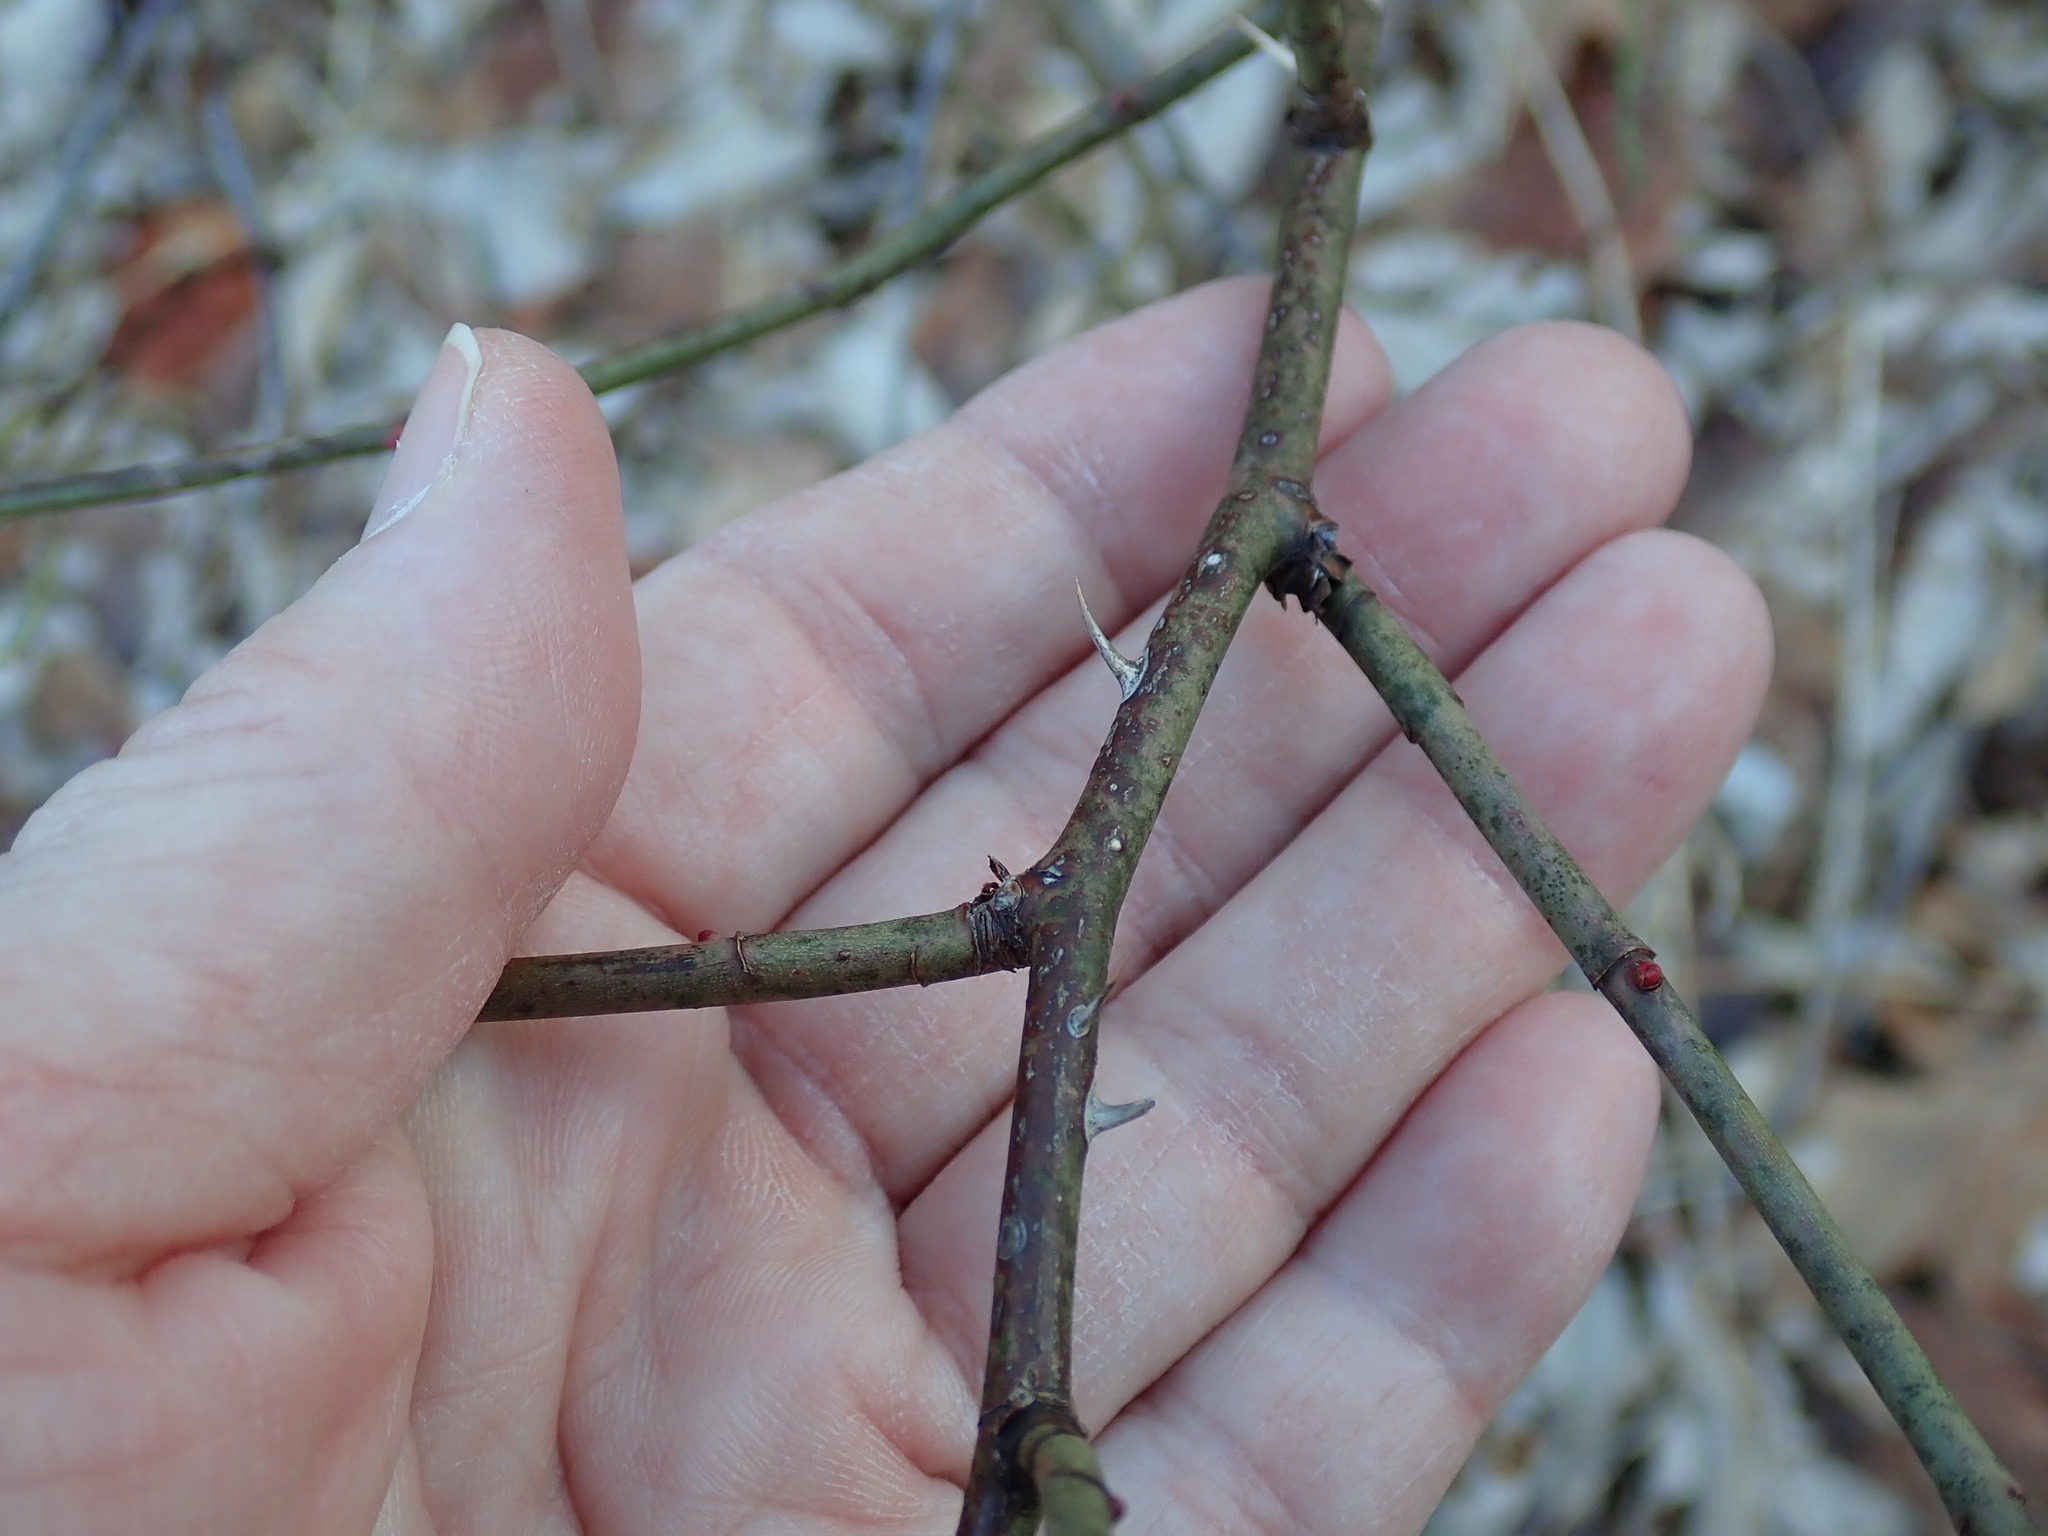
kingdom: Plantae
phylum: Tracheophyta
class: Magnoliopsida
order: Rosales
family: Rosaceae
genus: Rosa
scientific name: Rosa canina
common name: Dog rose
